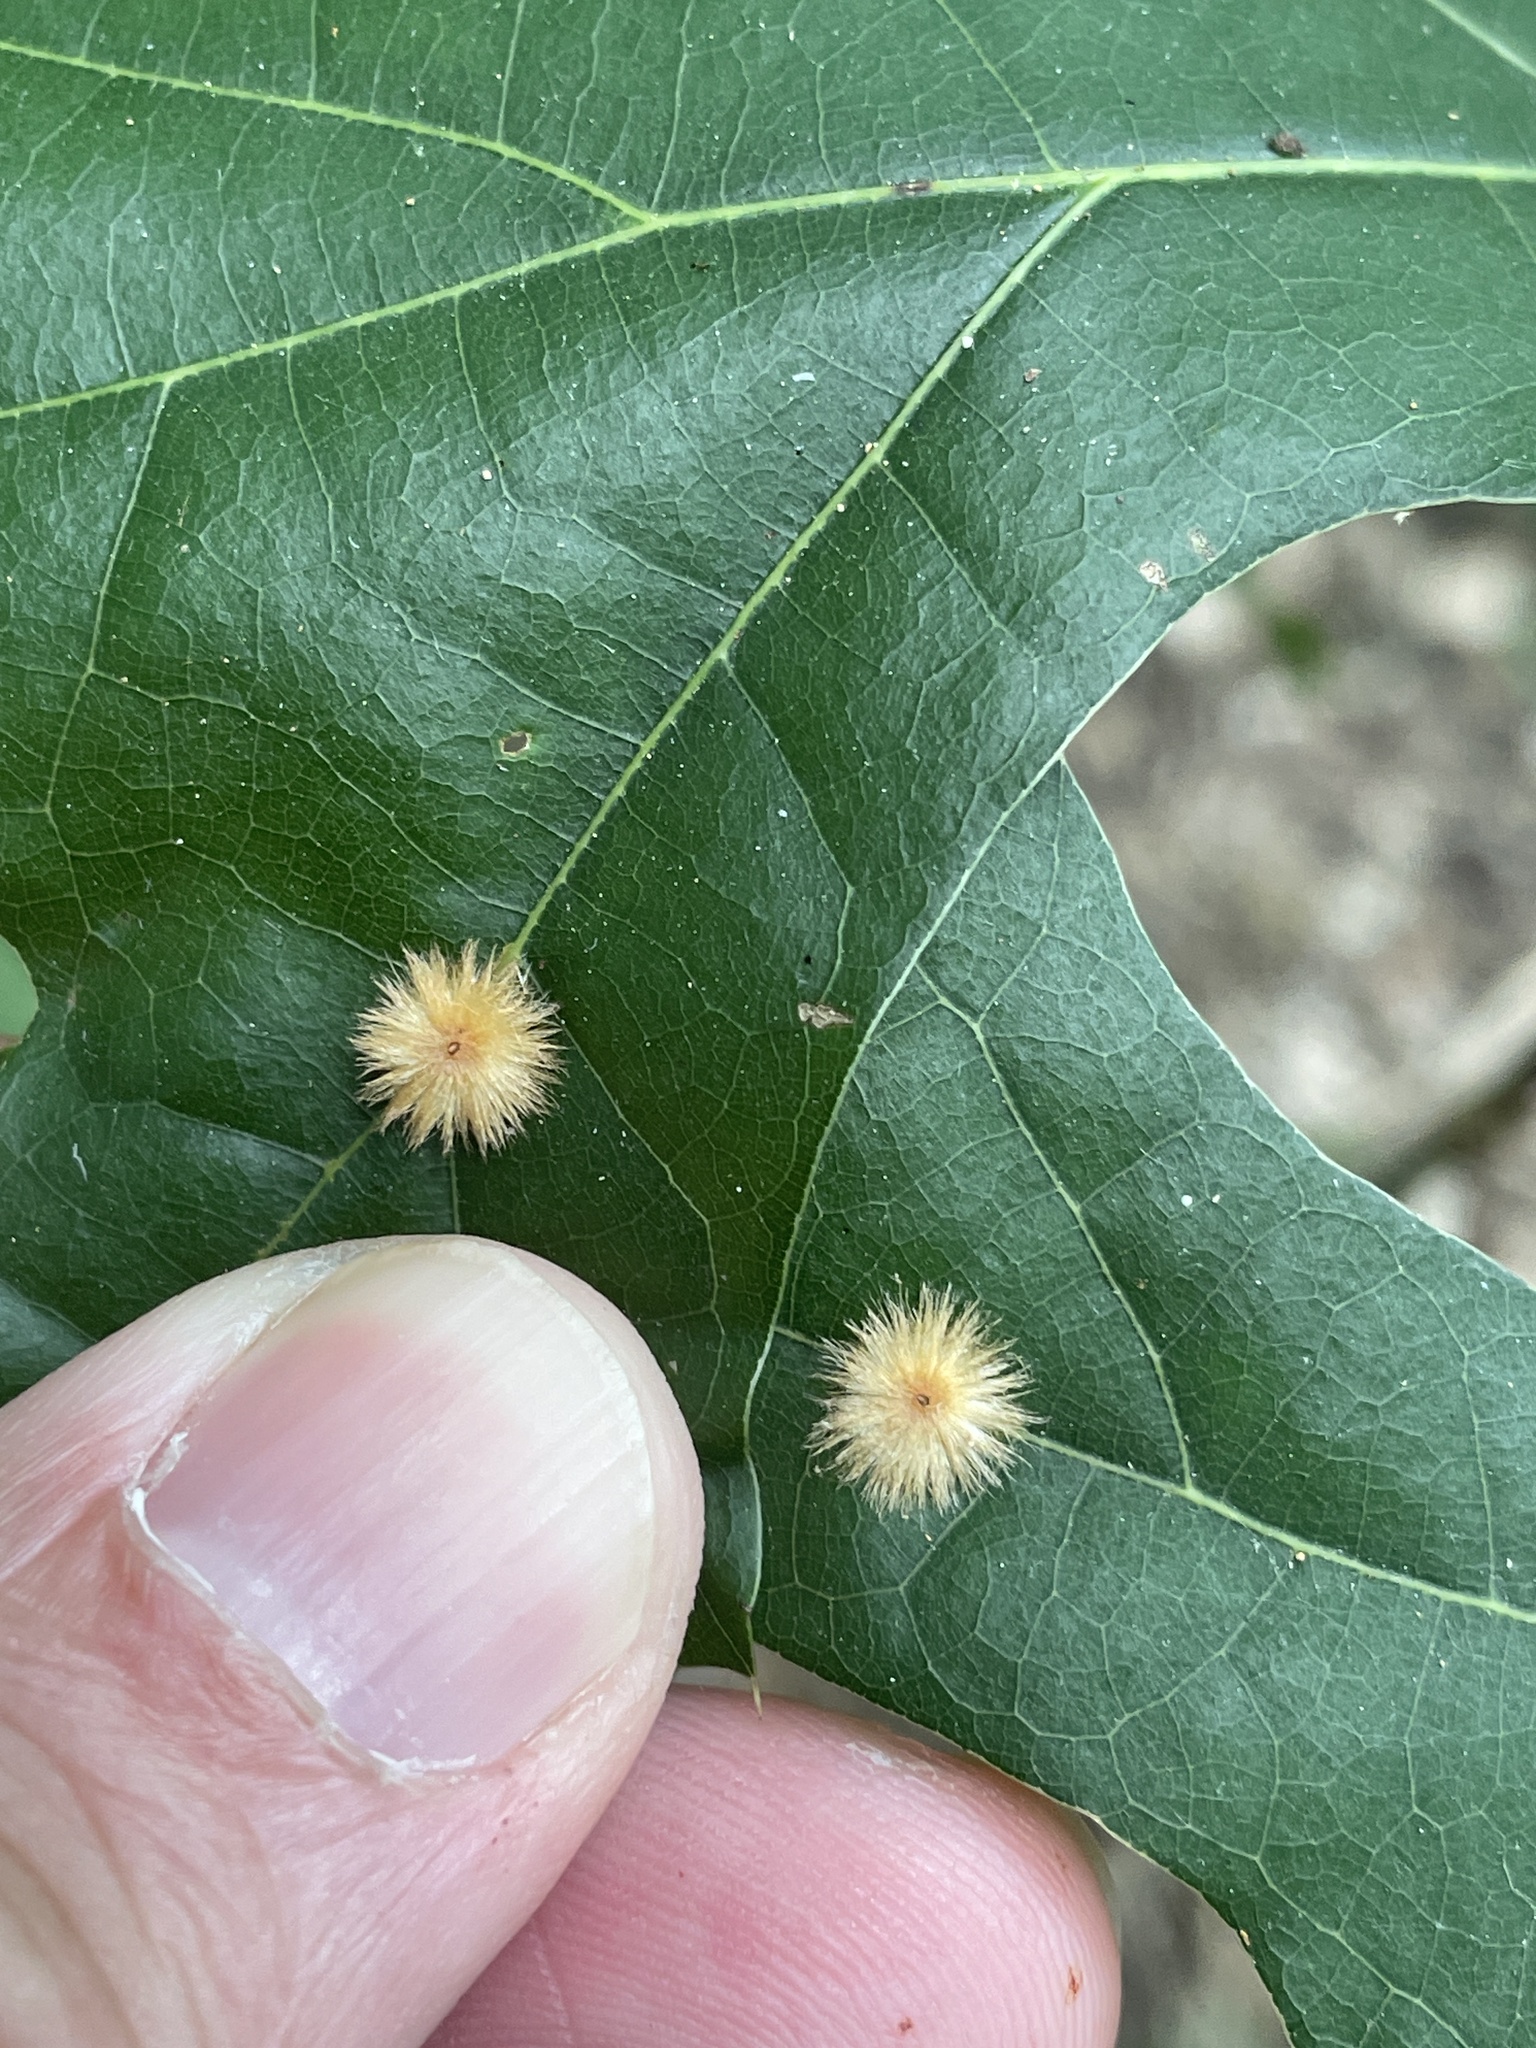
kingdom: Animalia
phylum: Arthropoda
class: Insecta
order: Hymenoptera
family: Cynipidae
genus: Callirhytis
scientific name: Callirhytis
